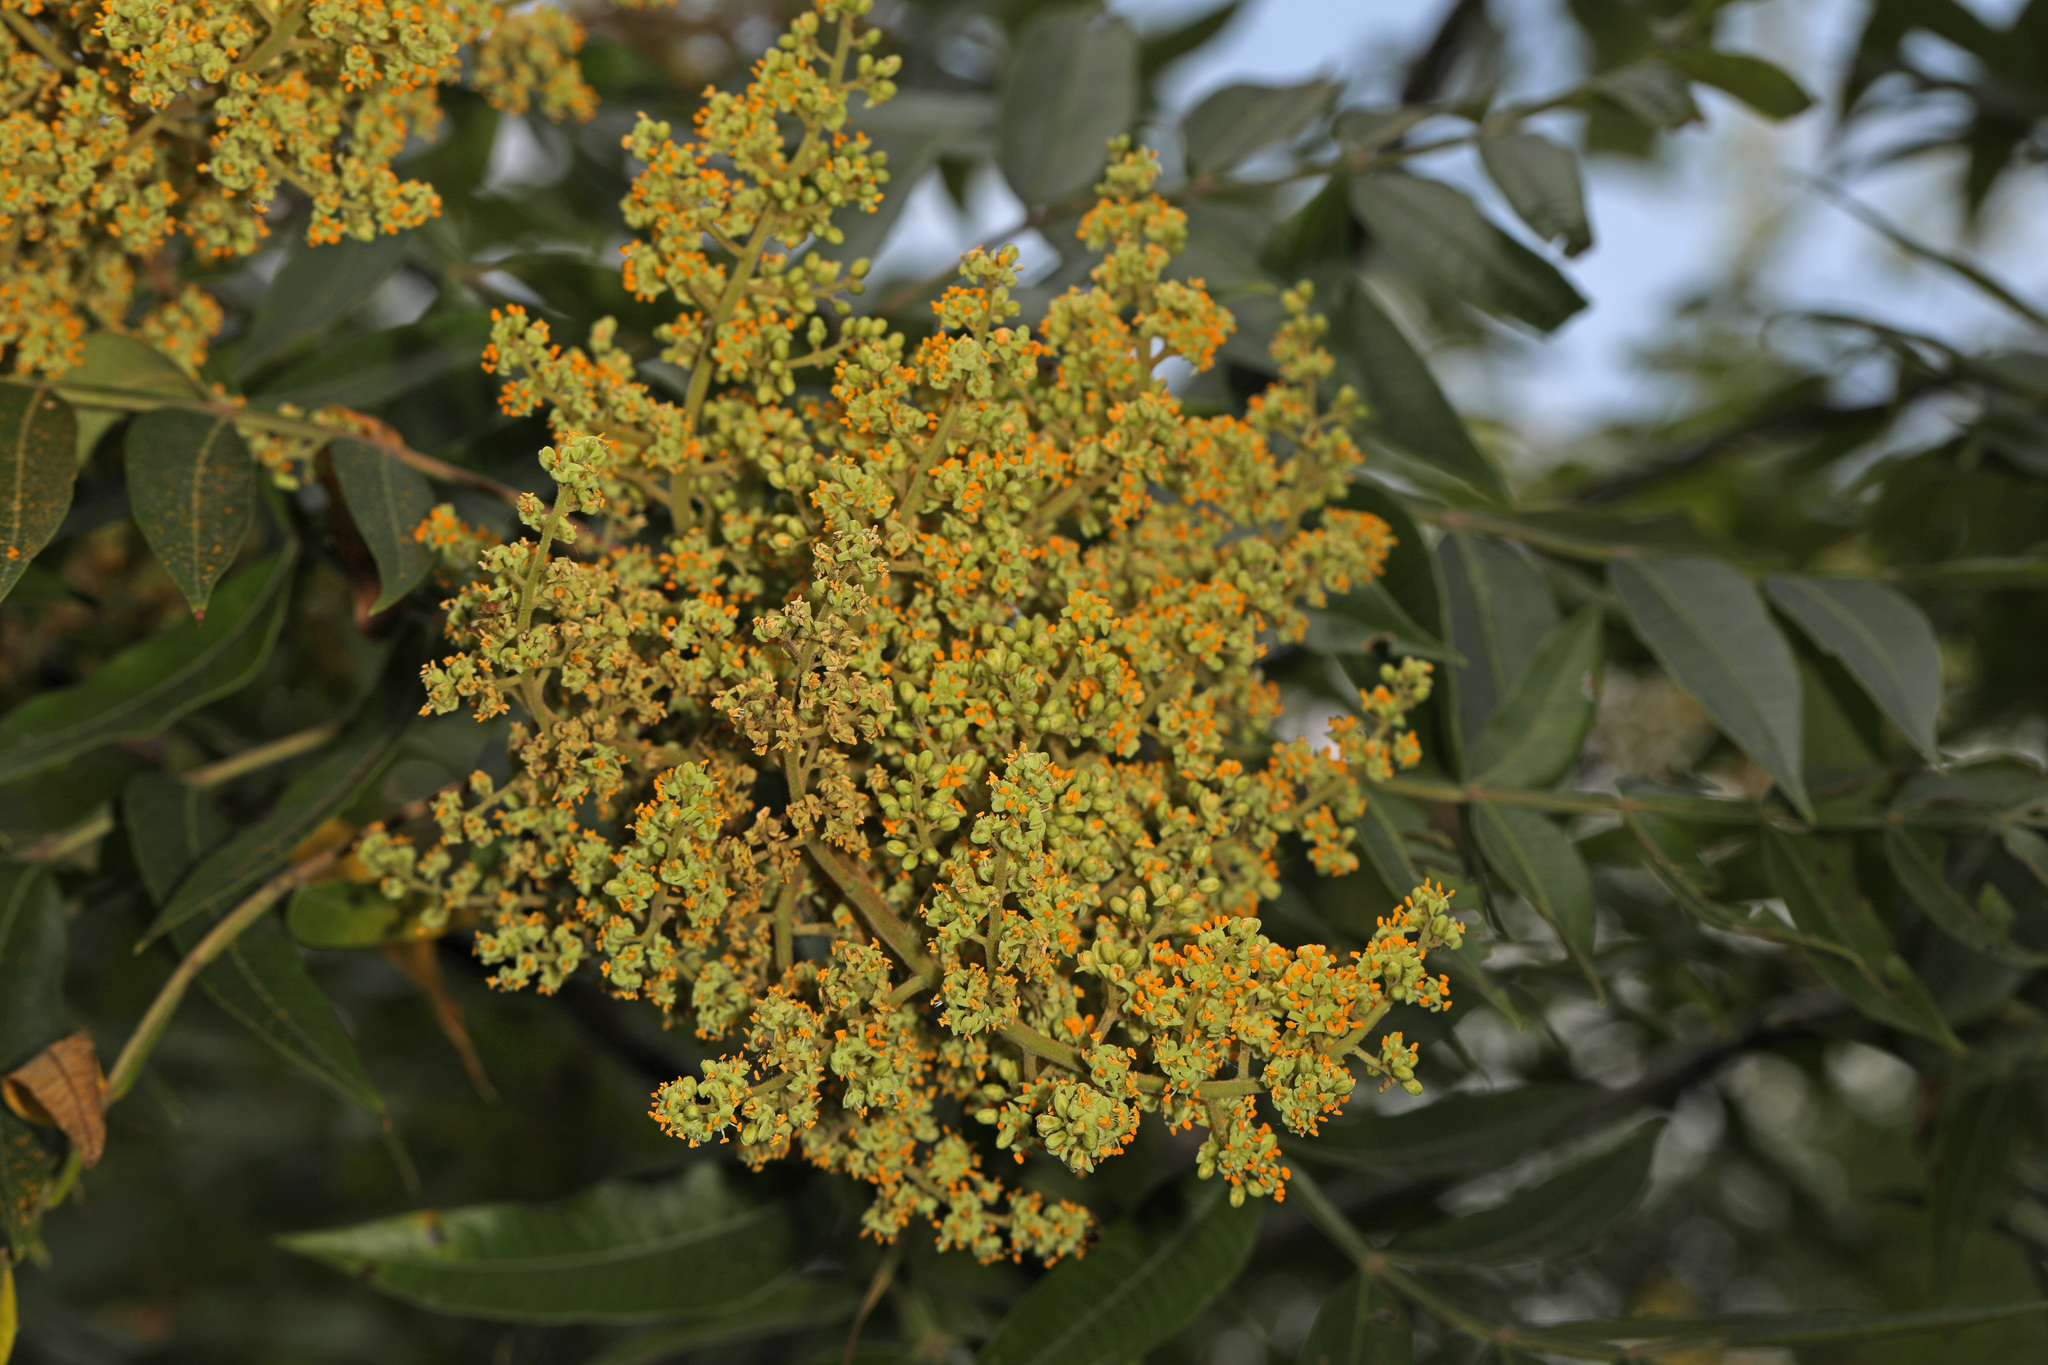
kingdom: Plantae
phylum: Tracheophyta
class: Magnoliopsida
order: Sapindales
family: Anacardiaceae
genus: Rhus
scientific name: Rhus copallina
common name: Shining sumac
